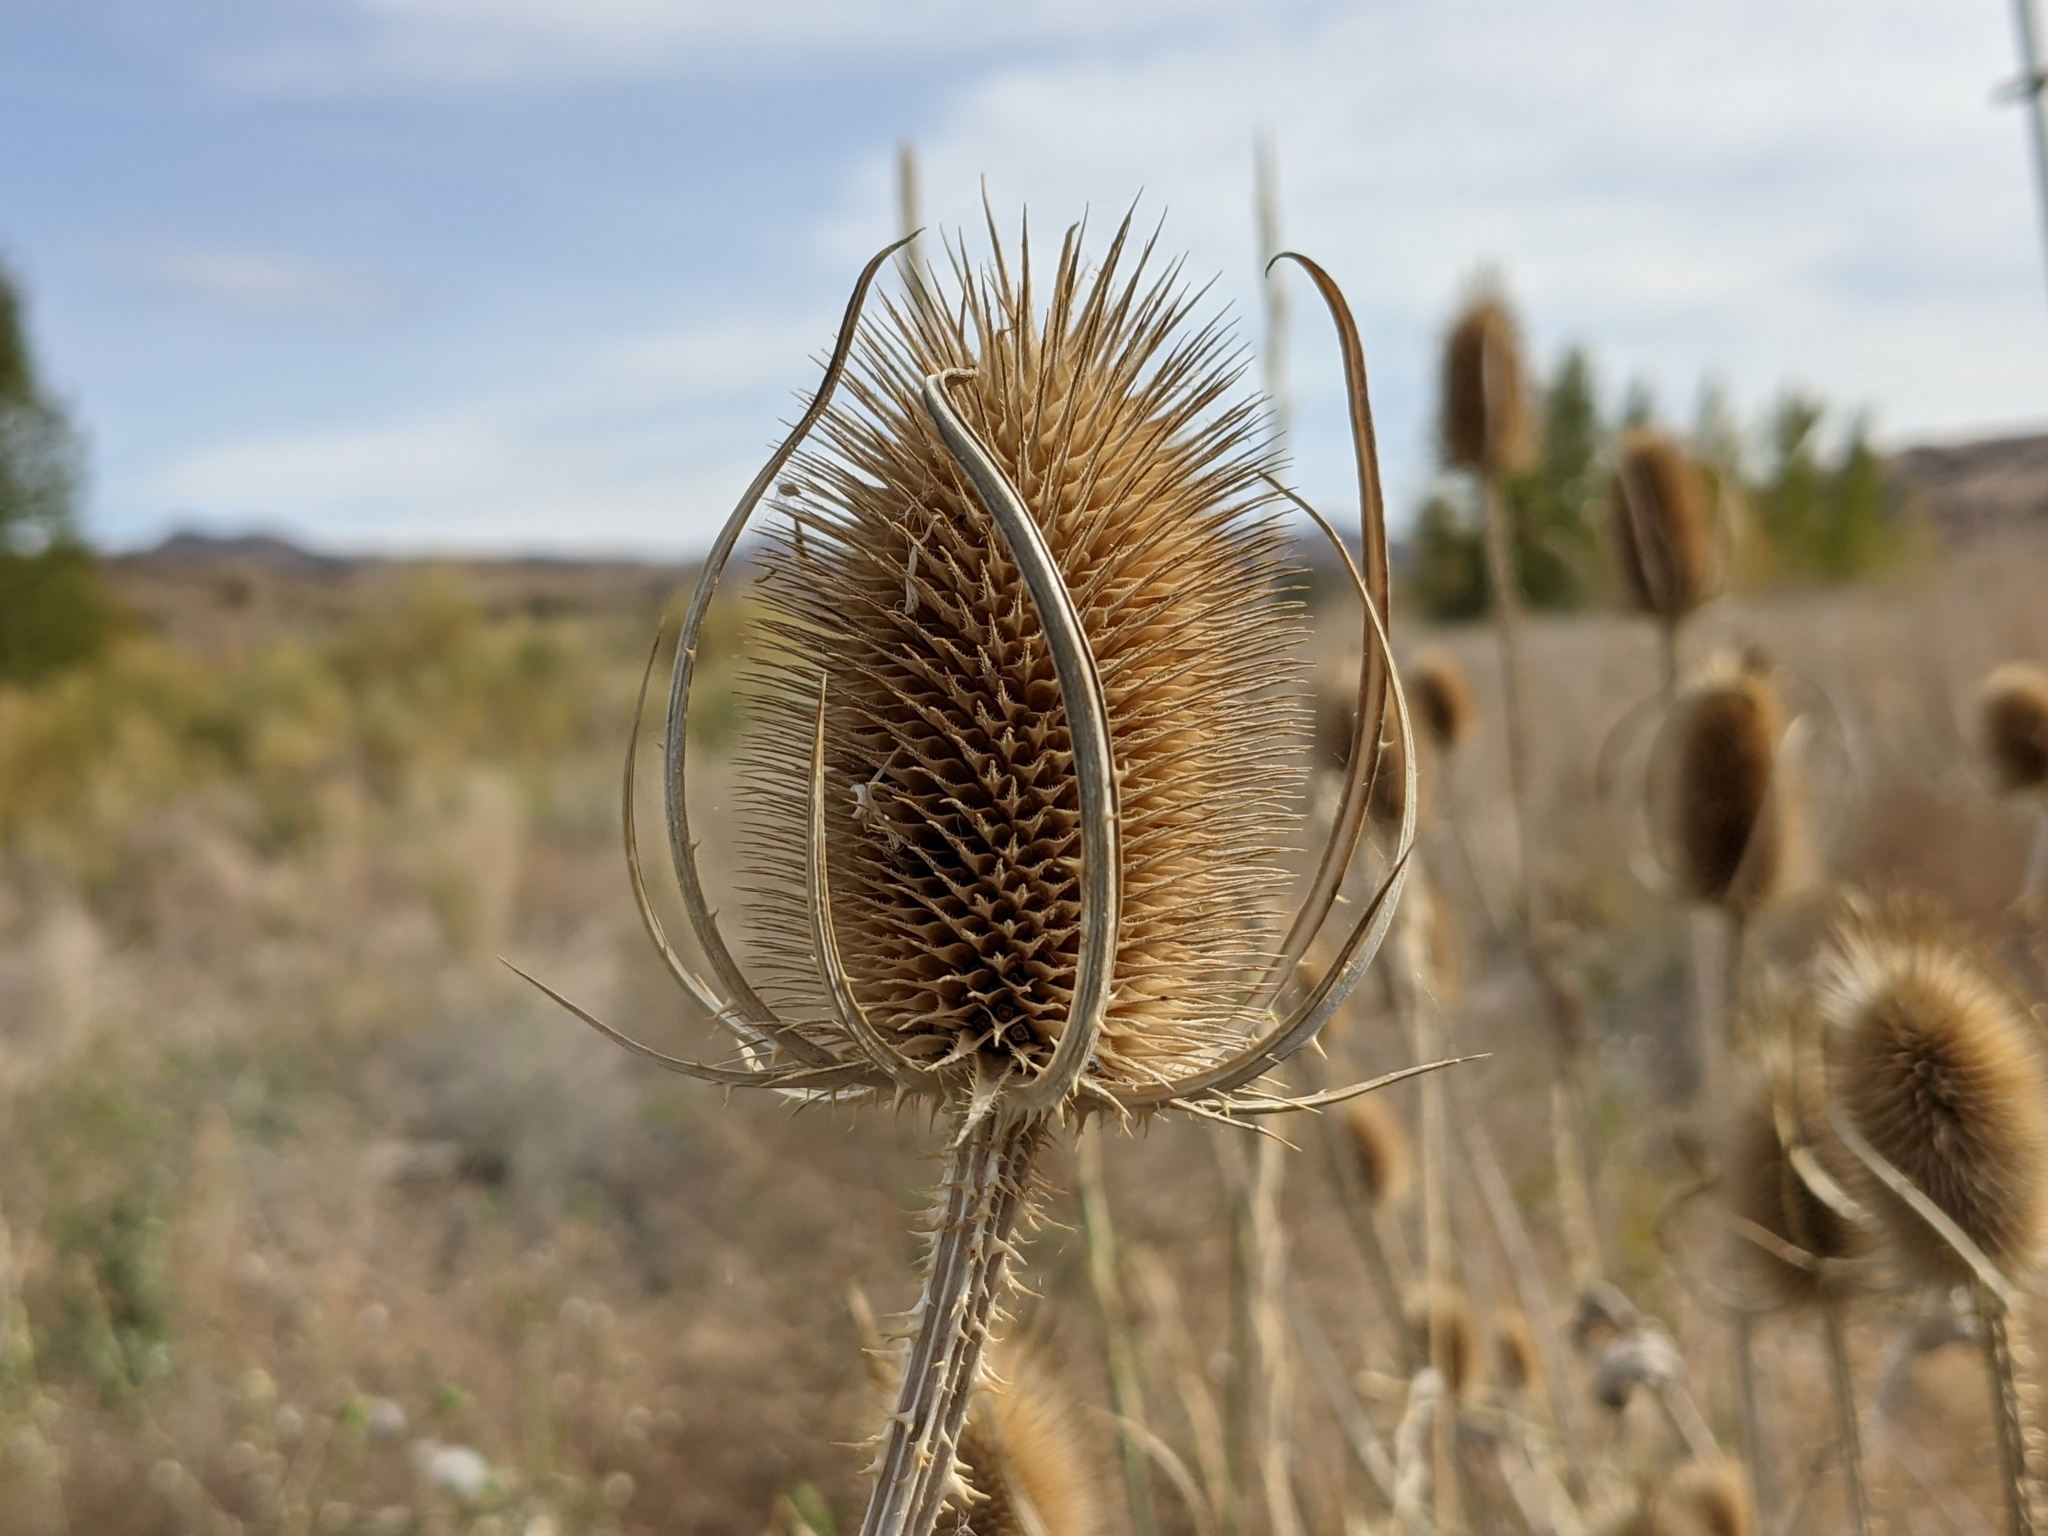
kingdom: Plantae
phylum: Tracheophyta
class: Magnoliopsida
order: Dipsacales
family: Caprifoliaceae
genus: Dipsacus
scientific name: Dipsacus fullonum
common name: Teasel
